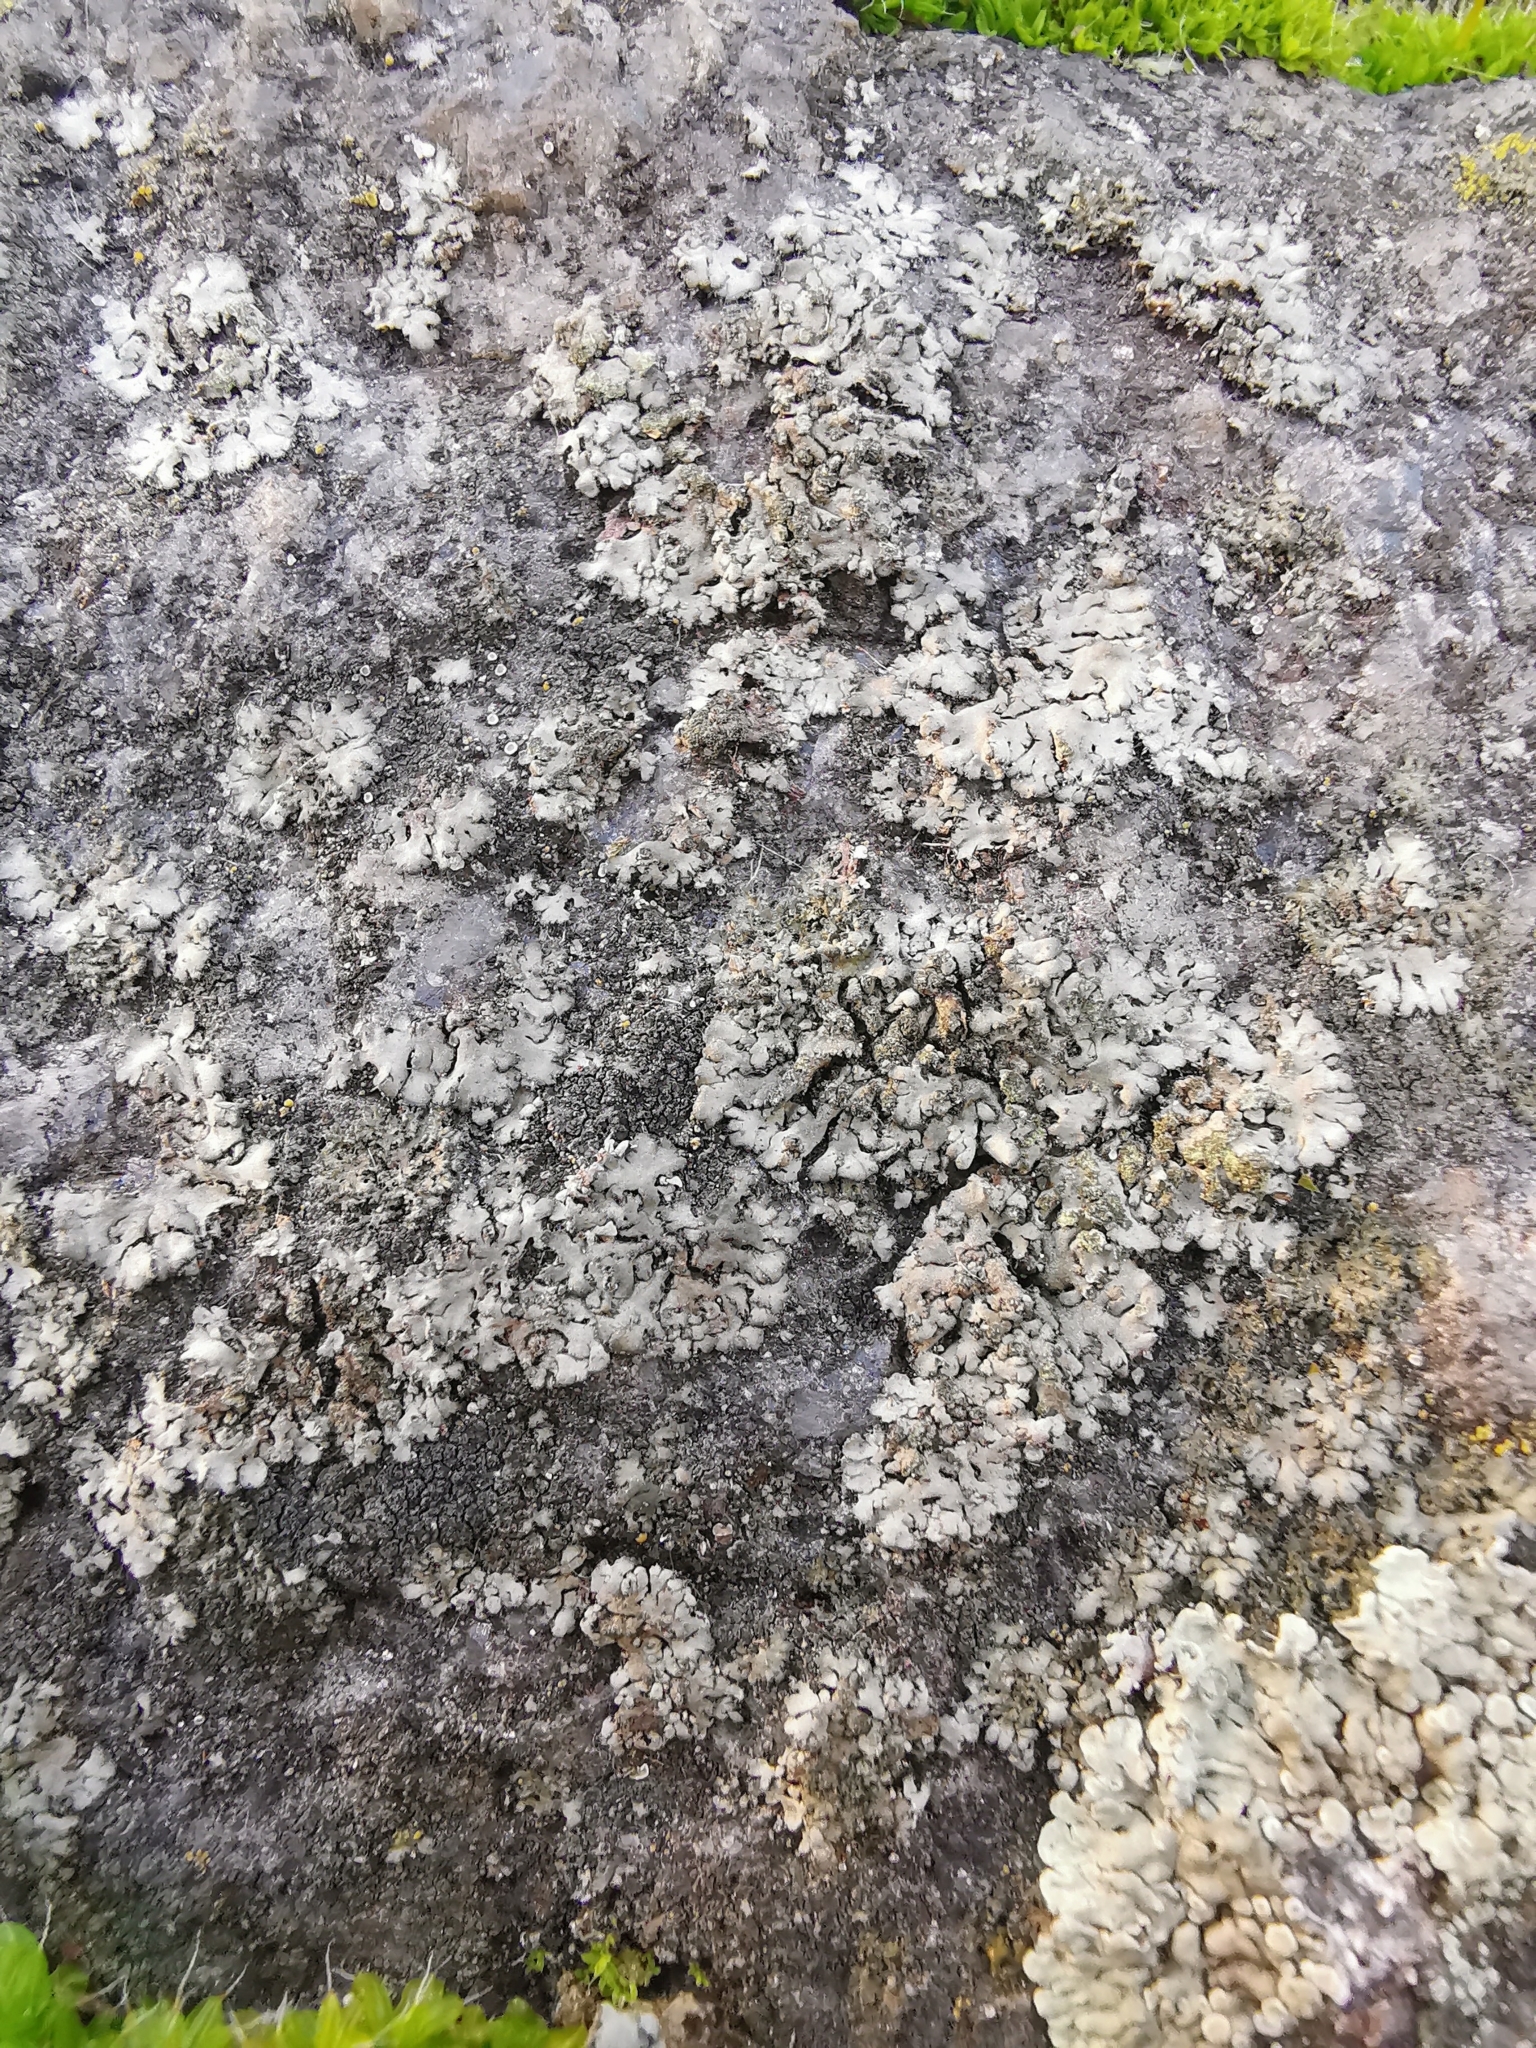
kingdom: Fungi
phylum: Ascomycota
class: Lecanoromycetes
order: Caliciales
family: Physciaceae
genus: Phaeophyscia
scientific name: Phaeophyscia orbicularis
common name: Mealy shadow lichen
